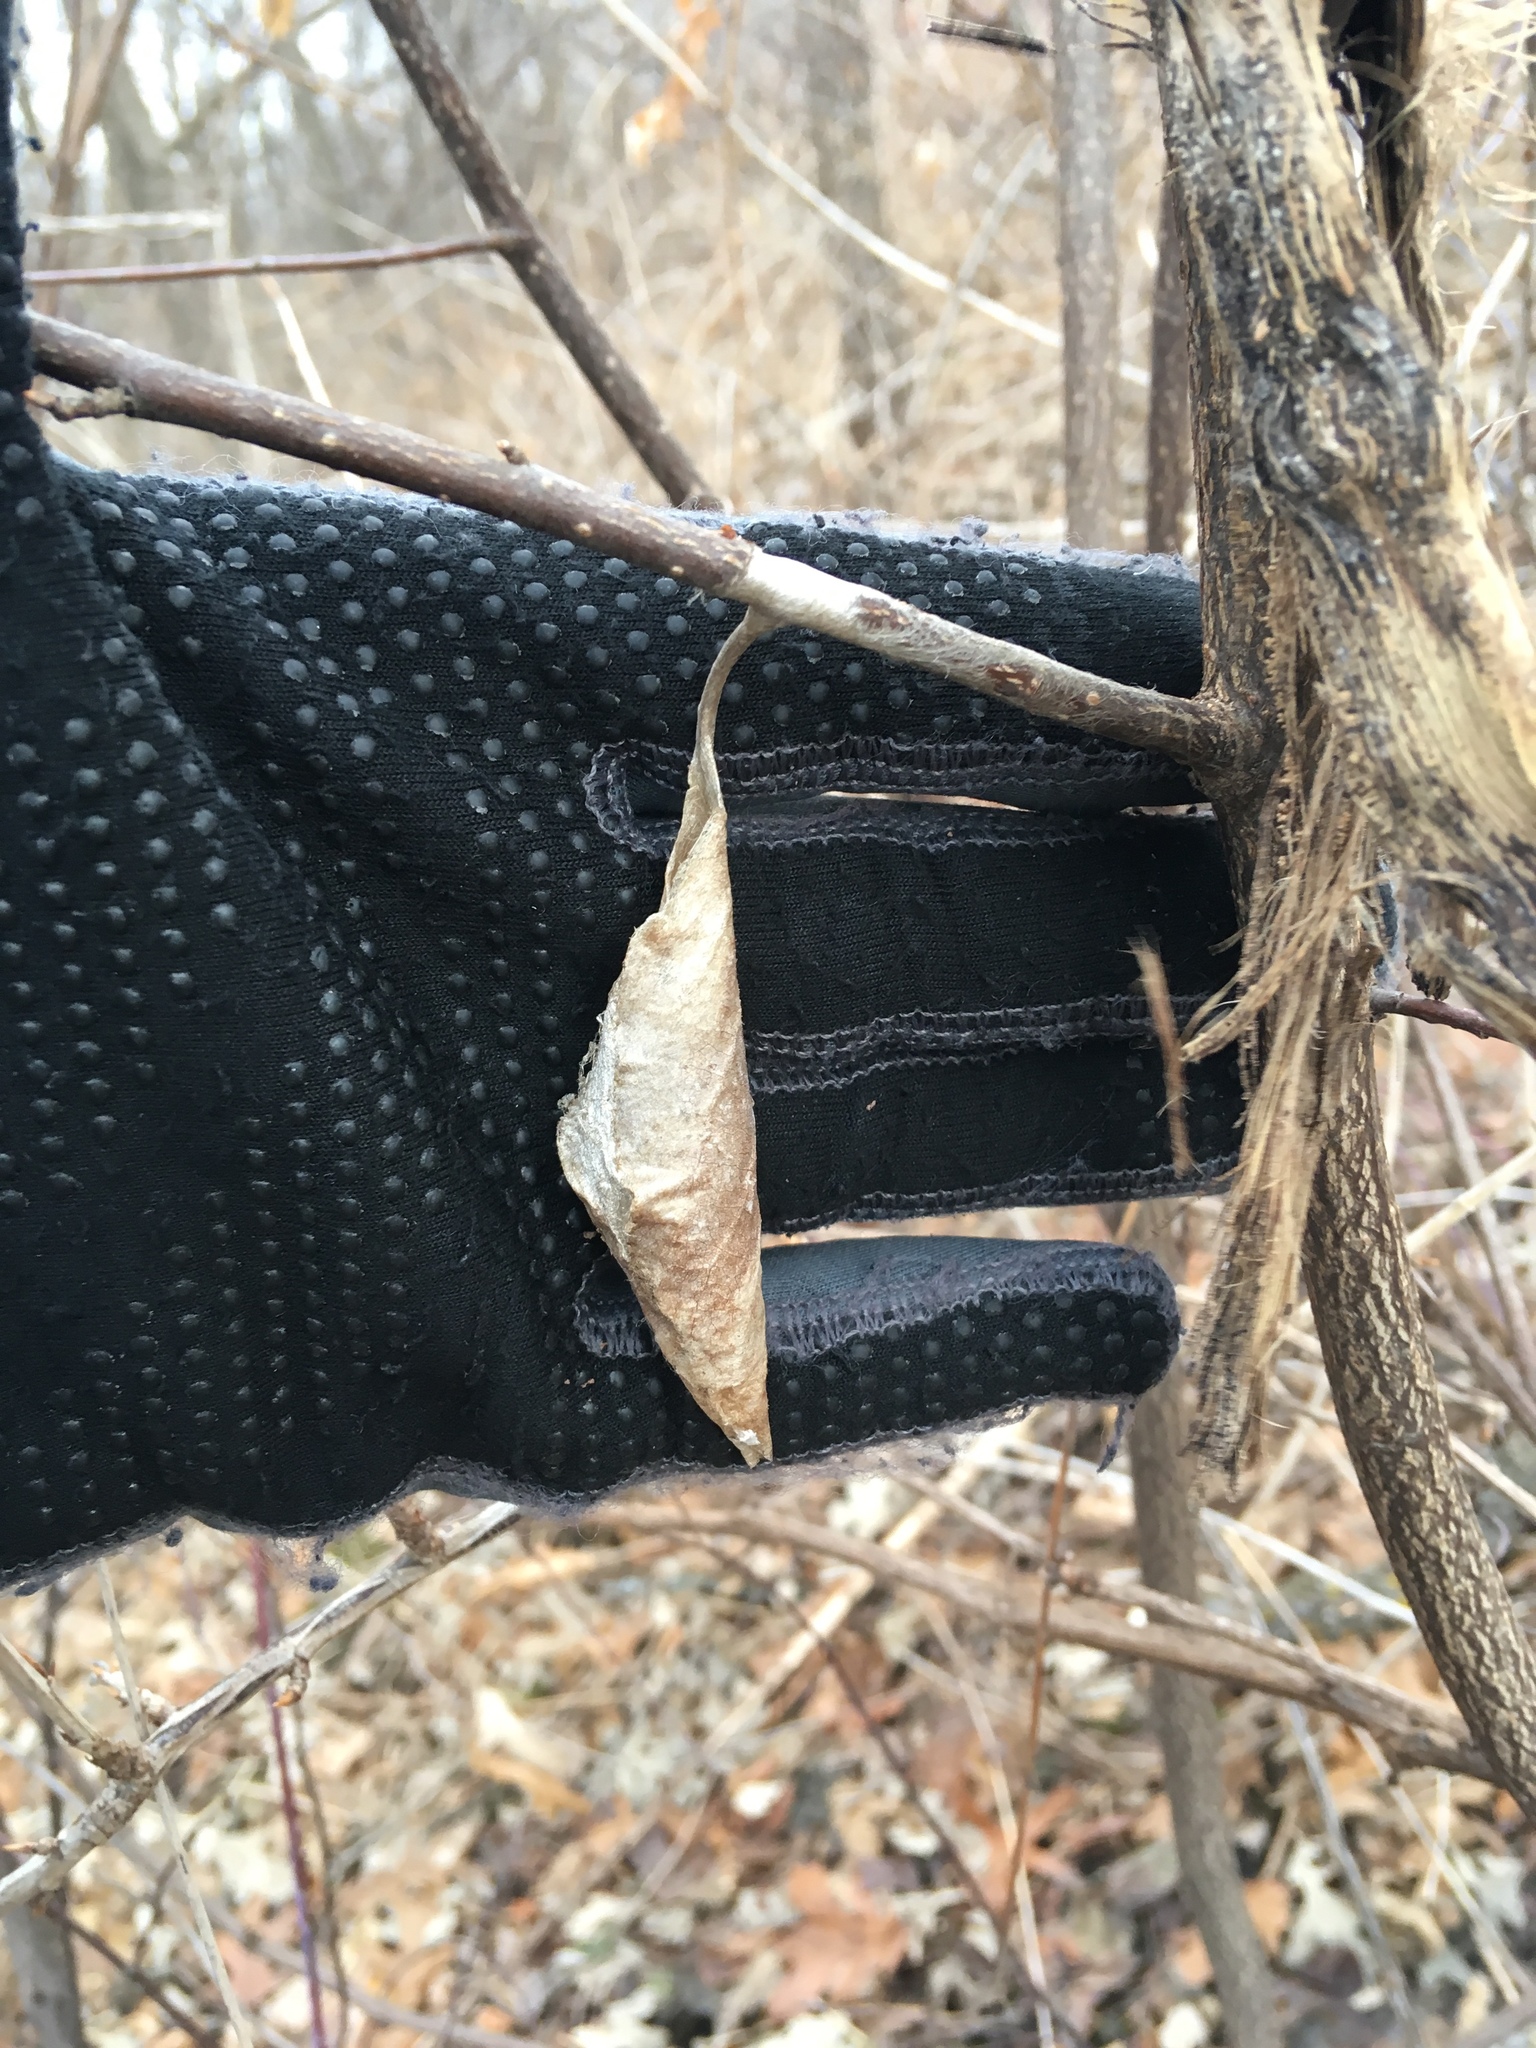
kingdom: Animalia
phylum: Arthropoda
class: Insecta
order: Lepidoptera
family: Saturniidae
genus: Callosamia
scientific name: Callosamia promethea
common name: Promethea silkmoth
